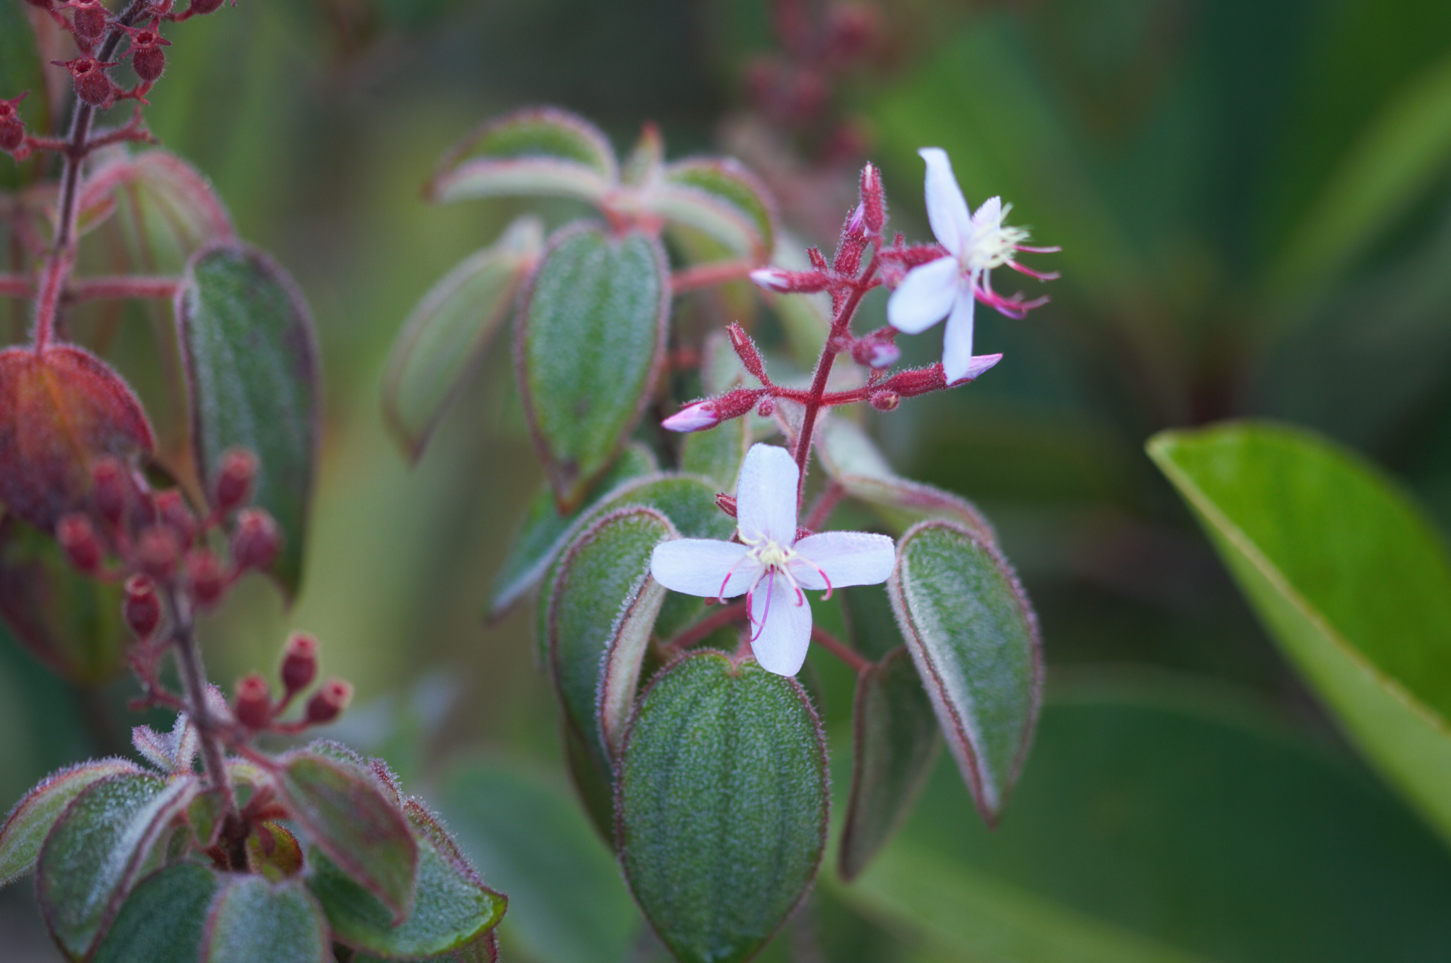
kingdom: Plantae
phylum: Tracheophyta
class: Magnoliopsida
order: Myrtales
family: Melastomataceae
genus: Ernestia
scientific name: Ernestia granvillei
